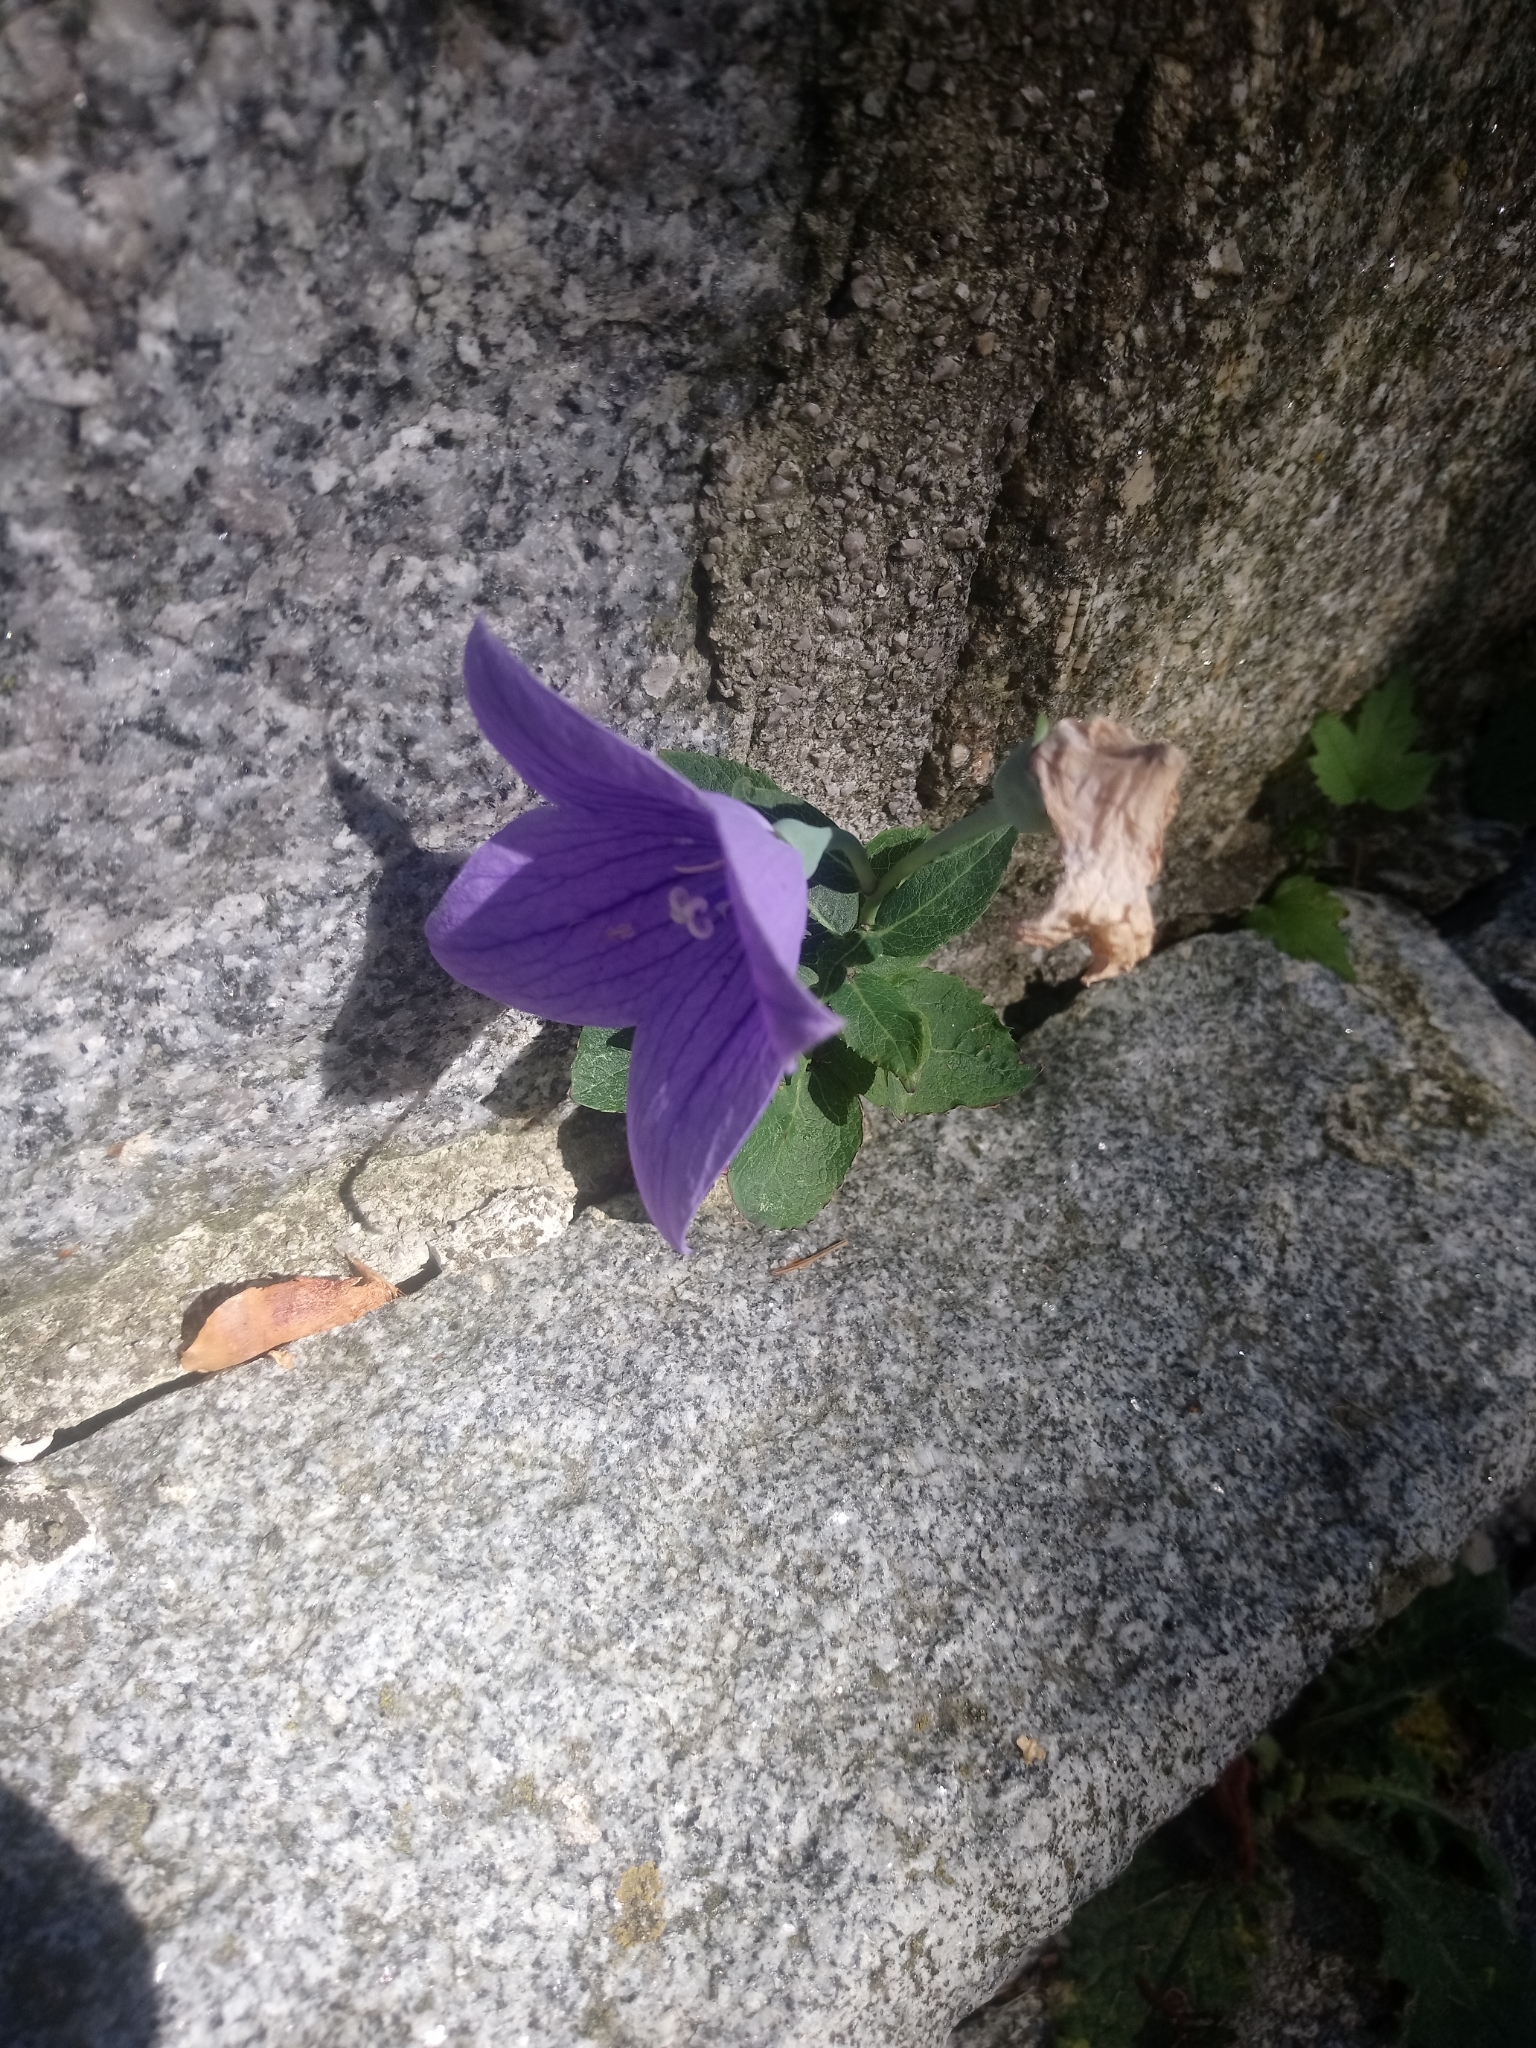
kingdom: Plantae
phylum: Tracheophyta
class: Magnoliopsida
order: Asterales
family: Campanulaceae
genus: Platycodon
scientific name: Platycodon grandiflorus
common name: Balloon-flower
